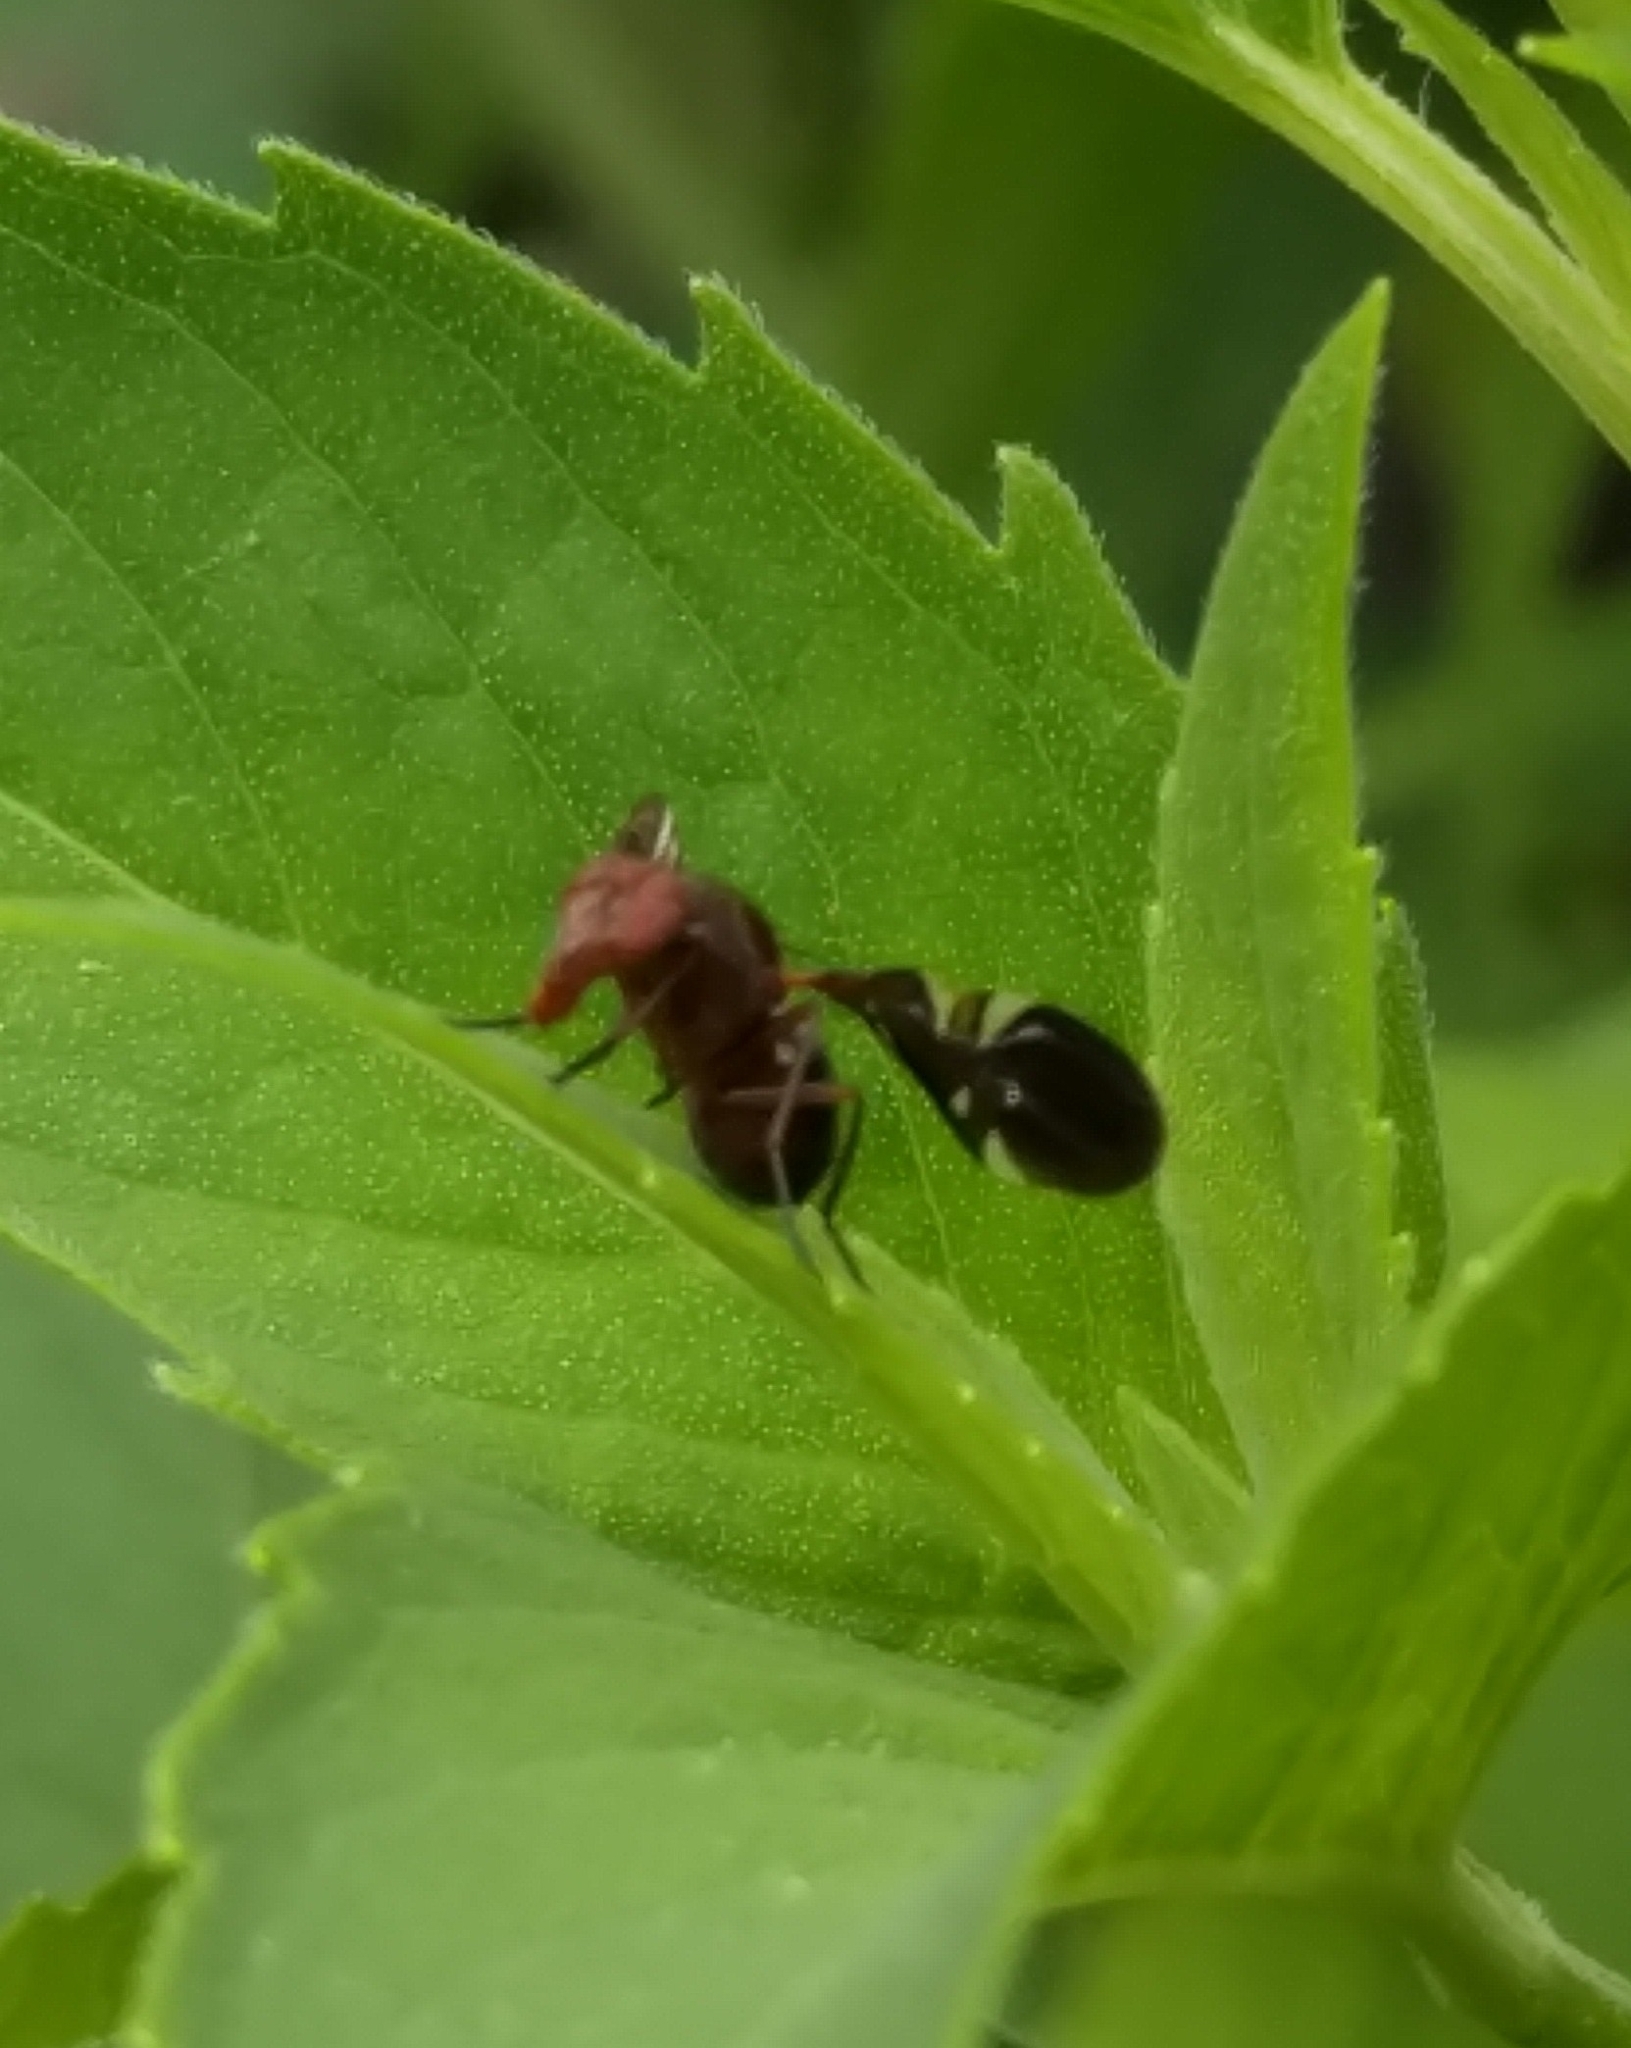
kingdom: Animalia
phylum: Arthropoda
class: Insecta
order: Diptera
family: Ulidiidae
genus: Delphinia
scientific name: Delphinia picta
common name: Common picture-winged fly
